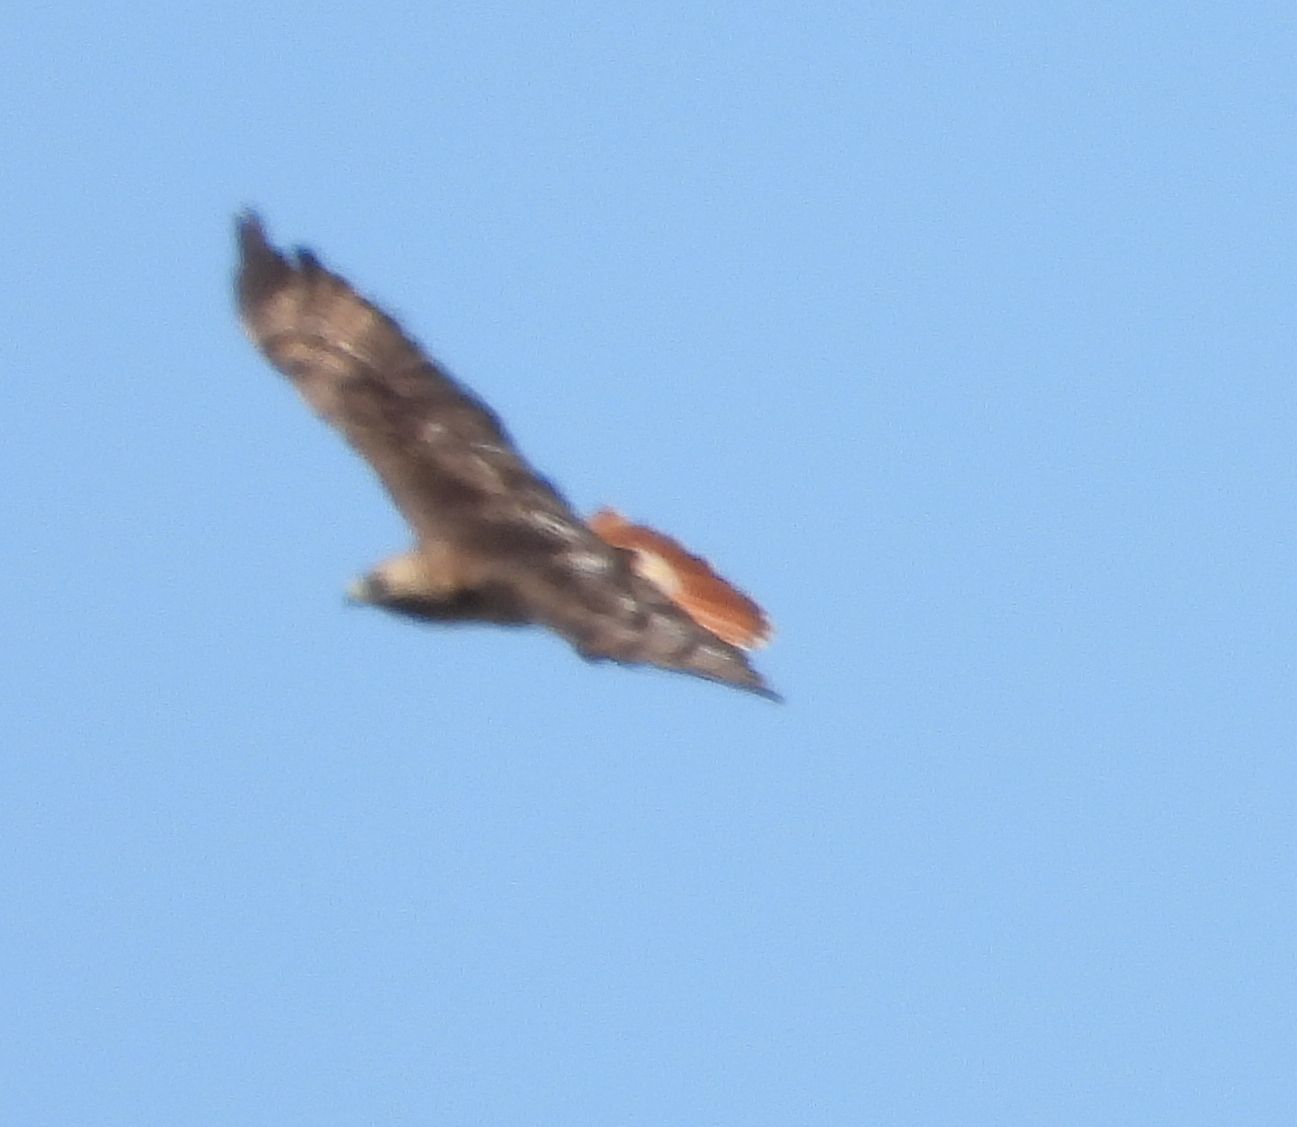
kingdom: Animalia
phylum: Chordata
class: Aves
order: Accipitriformes
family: Accipitridae
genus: Buteo
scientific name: Buteo jamaicensis
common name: Red-tailed hawk
